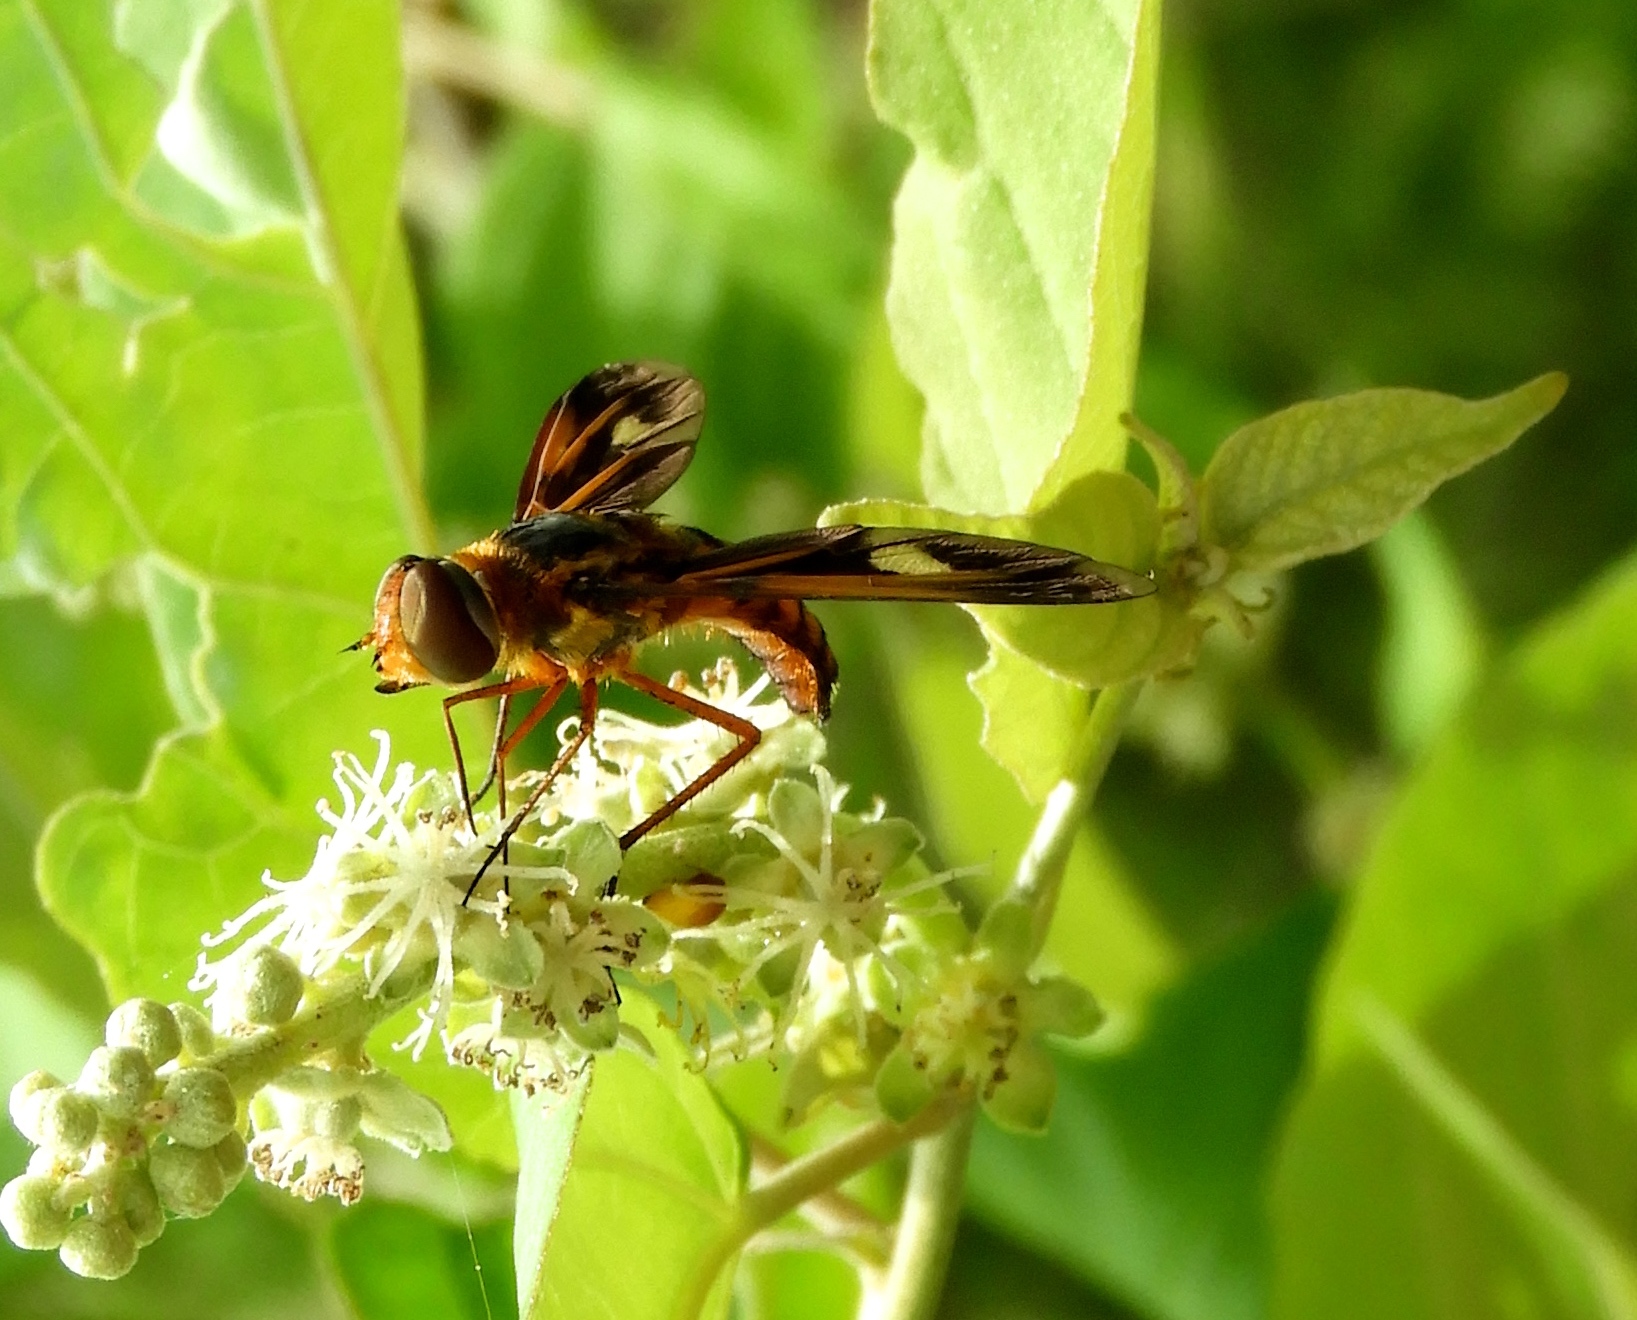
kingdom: Animalia
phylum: Arthropoda
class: Insecta
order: Diptera
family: Bombyliidae
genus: Poecilanthrax
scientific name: Poecilanthrax effrenus
